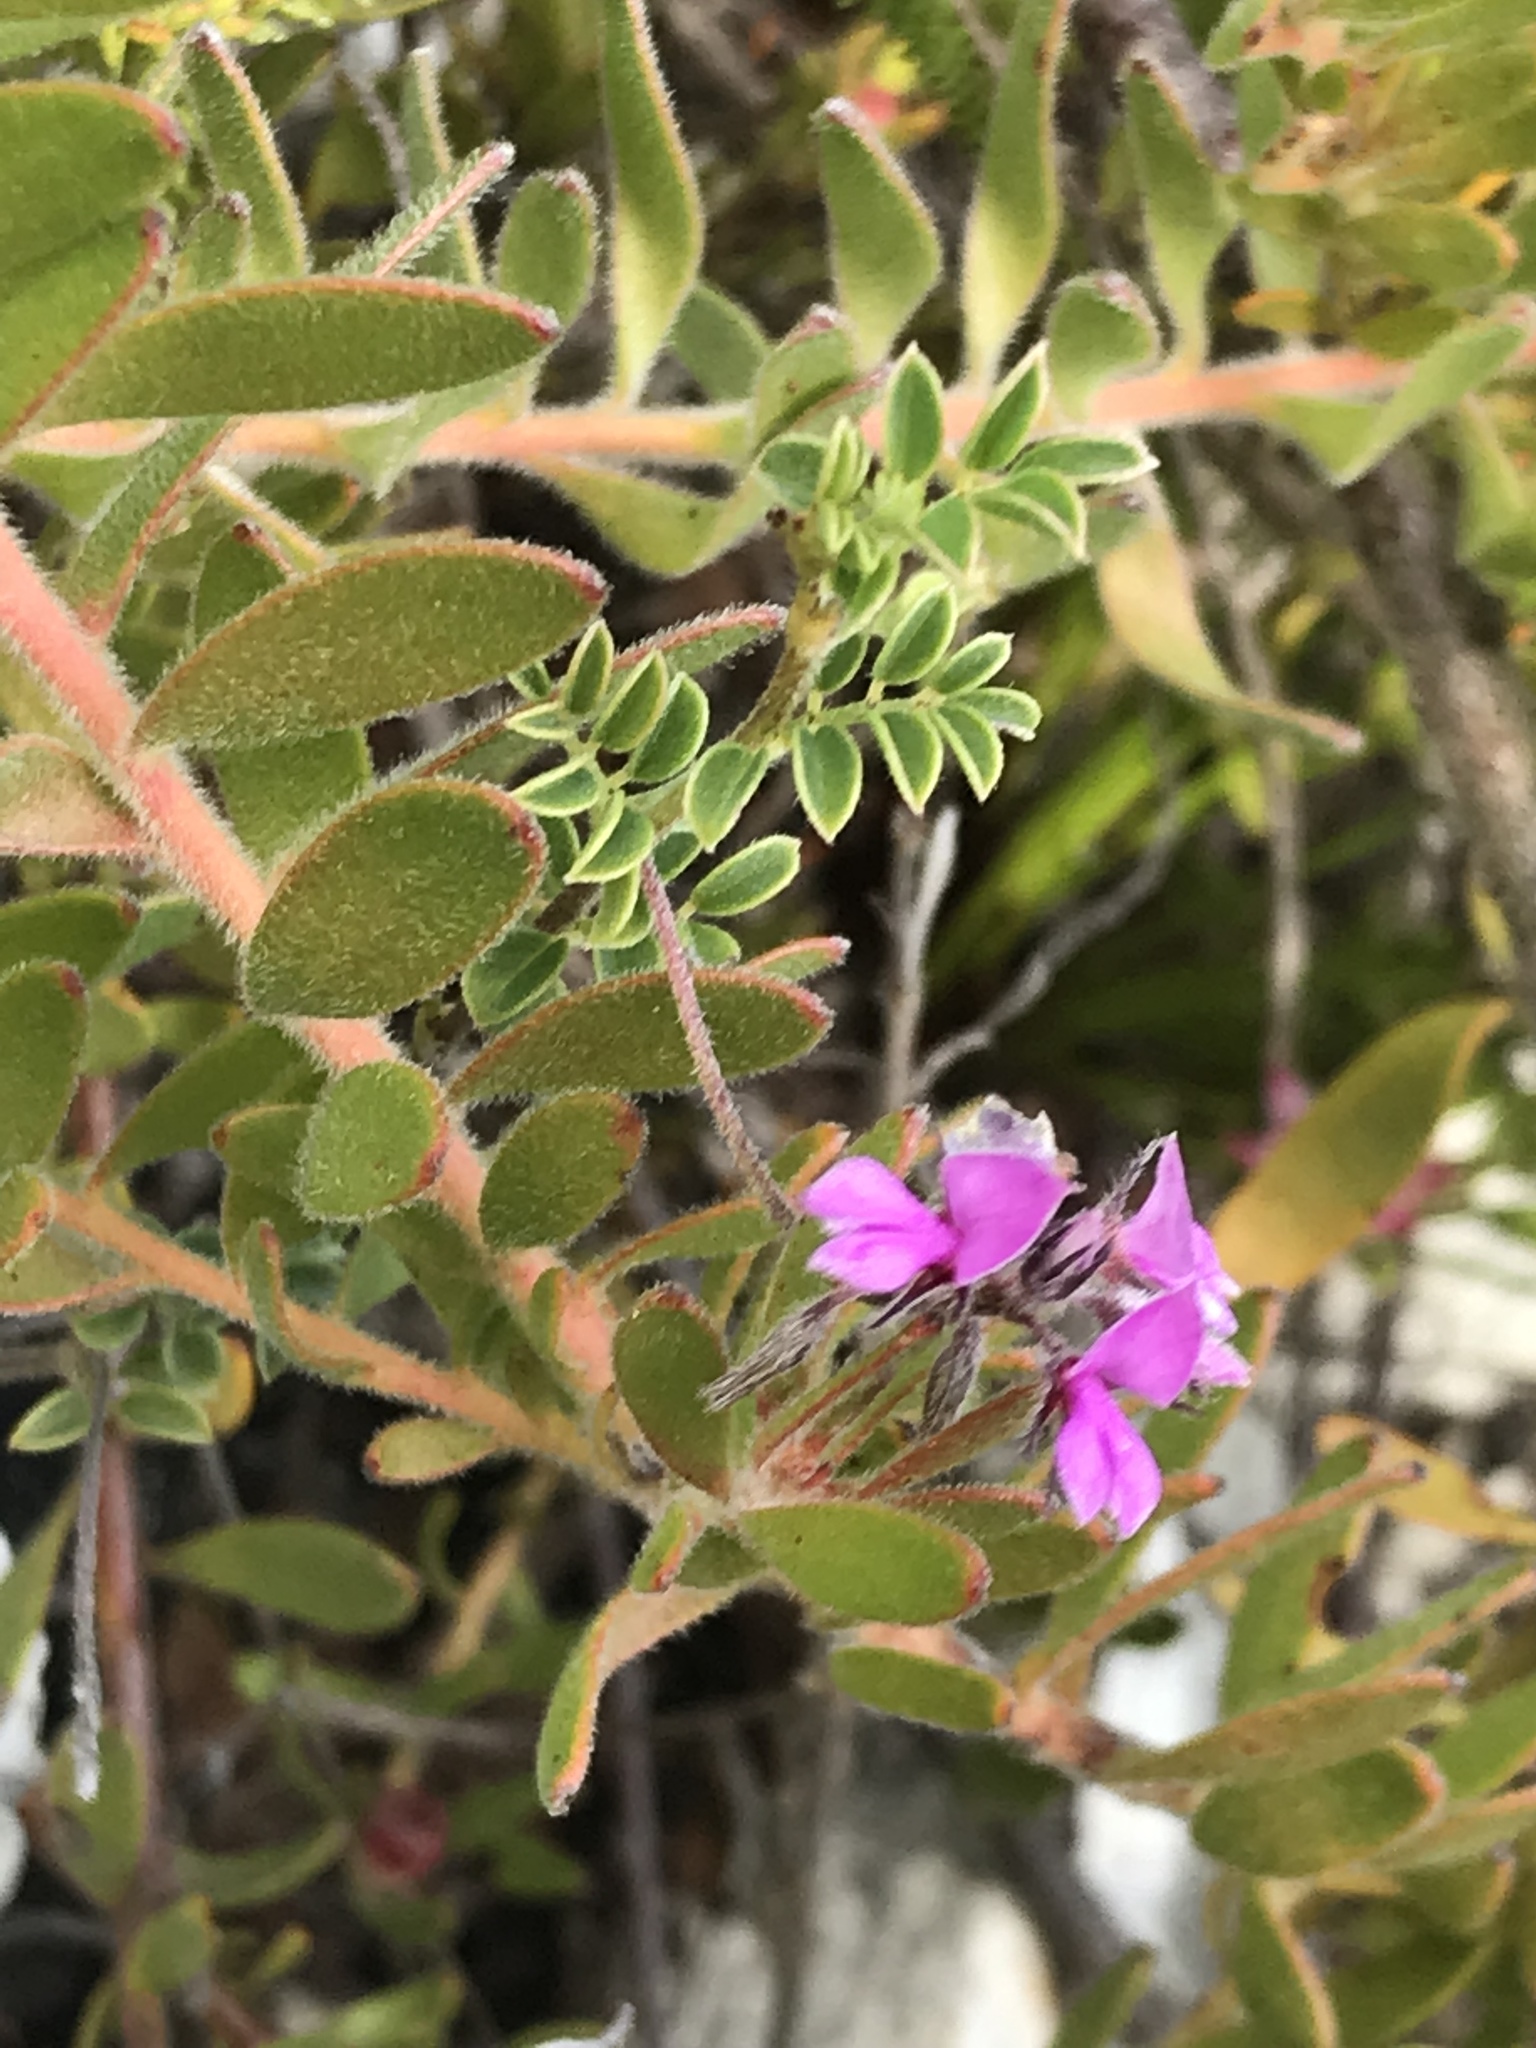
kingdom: Plantae
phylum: Tracheophyta
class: Magnoliopsida
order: Fabales
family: Fabaceae
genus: Indigofera
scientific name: Indigofera alopecuroides
